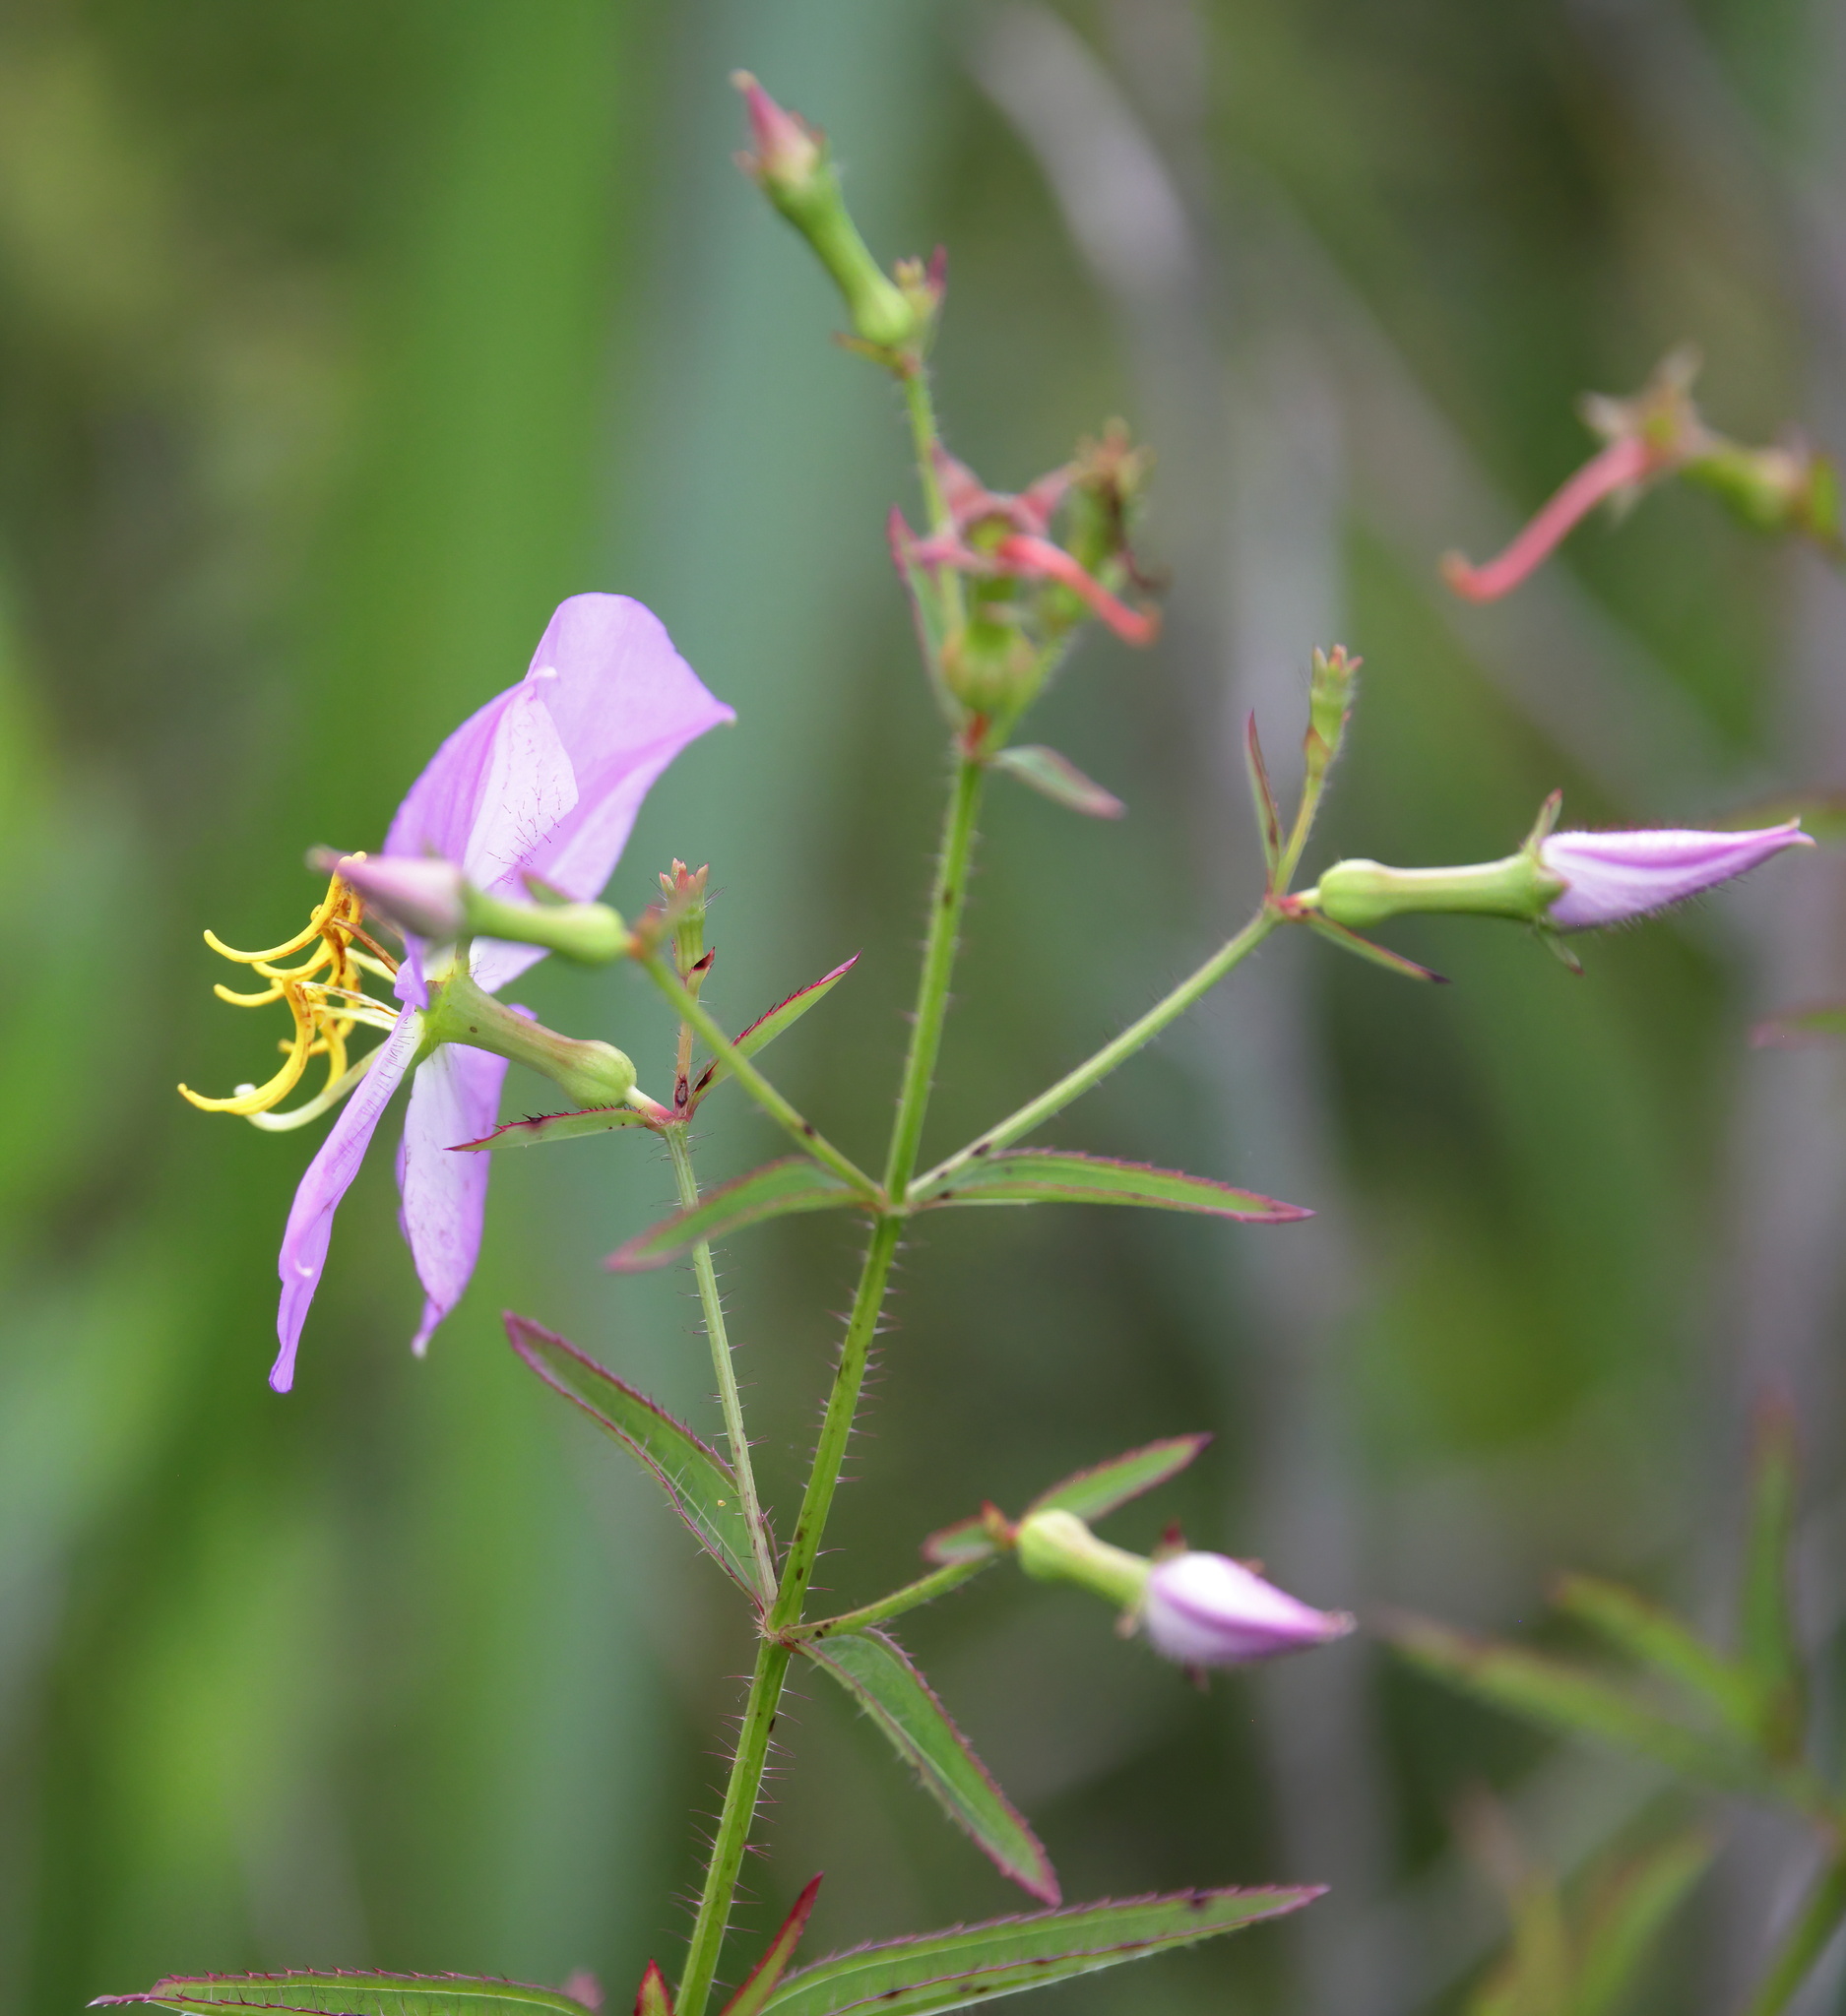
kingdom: Plantae
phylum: Tracheophyta
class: Magnoliopsida
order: Myrtales
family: Melastomataceae
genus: Rhexia
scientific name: Rhexia nashii
